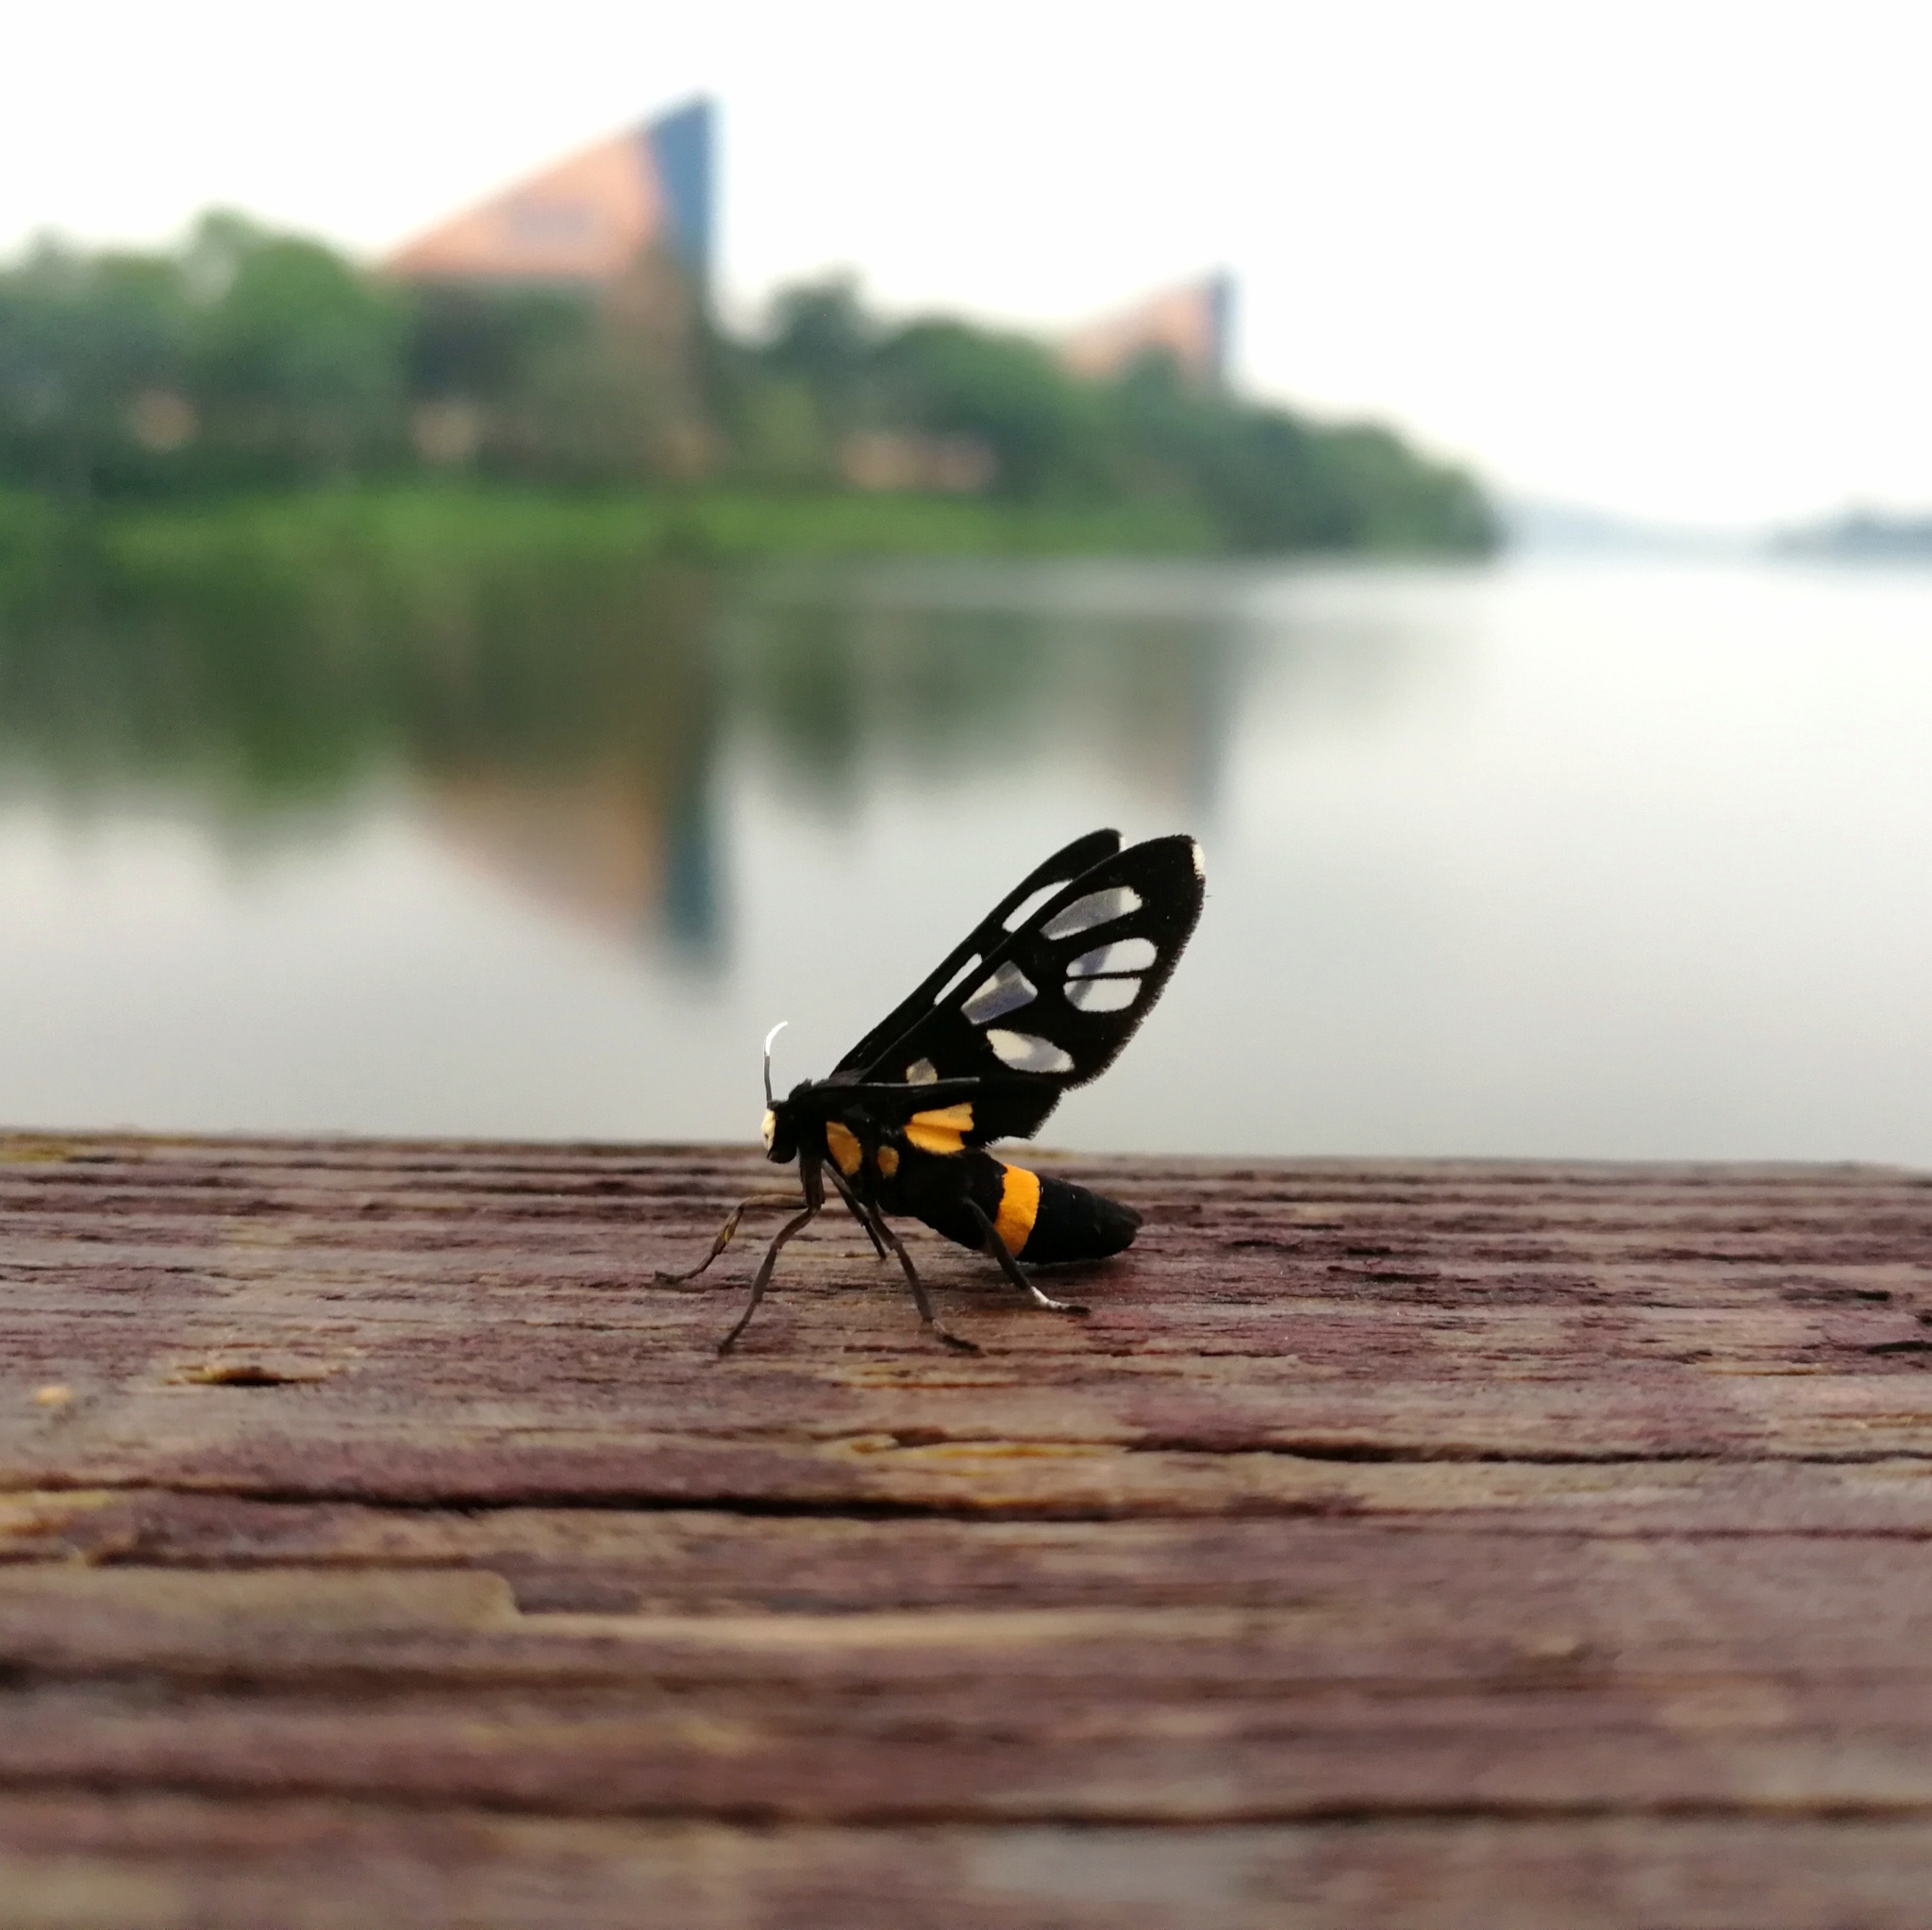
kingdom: Animalia
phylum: Arthropoda
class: Insecta
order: Lepidoptera
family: Erebidae
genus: Amata
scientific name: Amata sperbius
